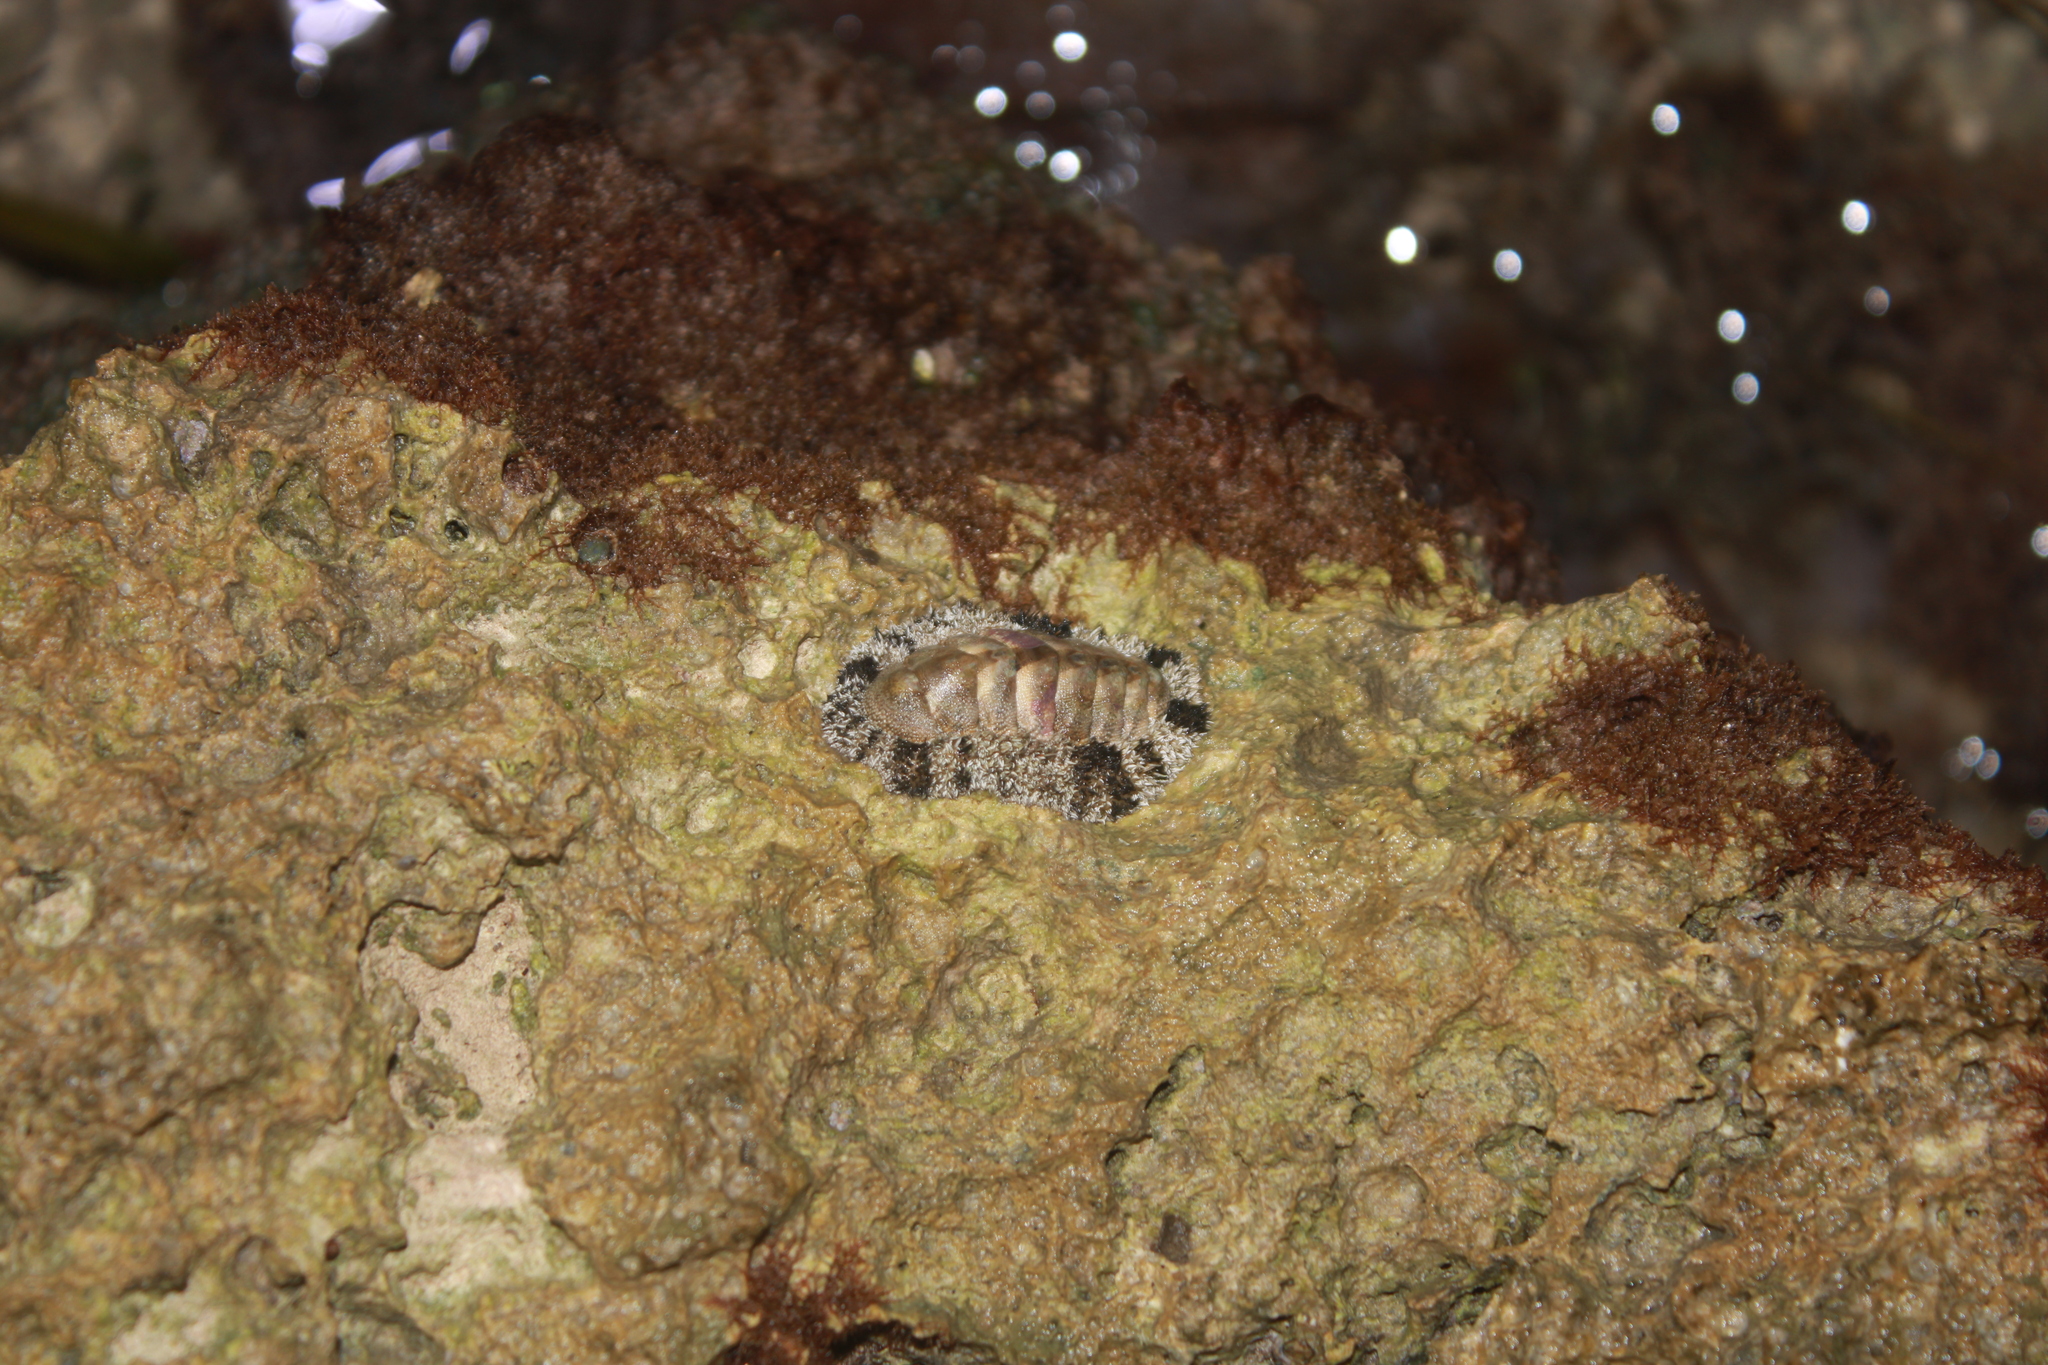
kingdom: Animalia
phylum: Mollusca
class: Polyplacophora
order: Chitonida
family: Chitonidae
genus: Acanthopleura
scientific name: Acanthopleura granulata
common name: West indian fuzzy chiton
